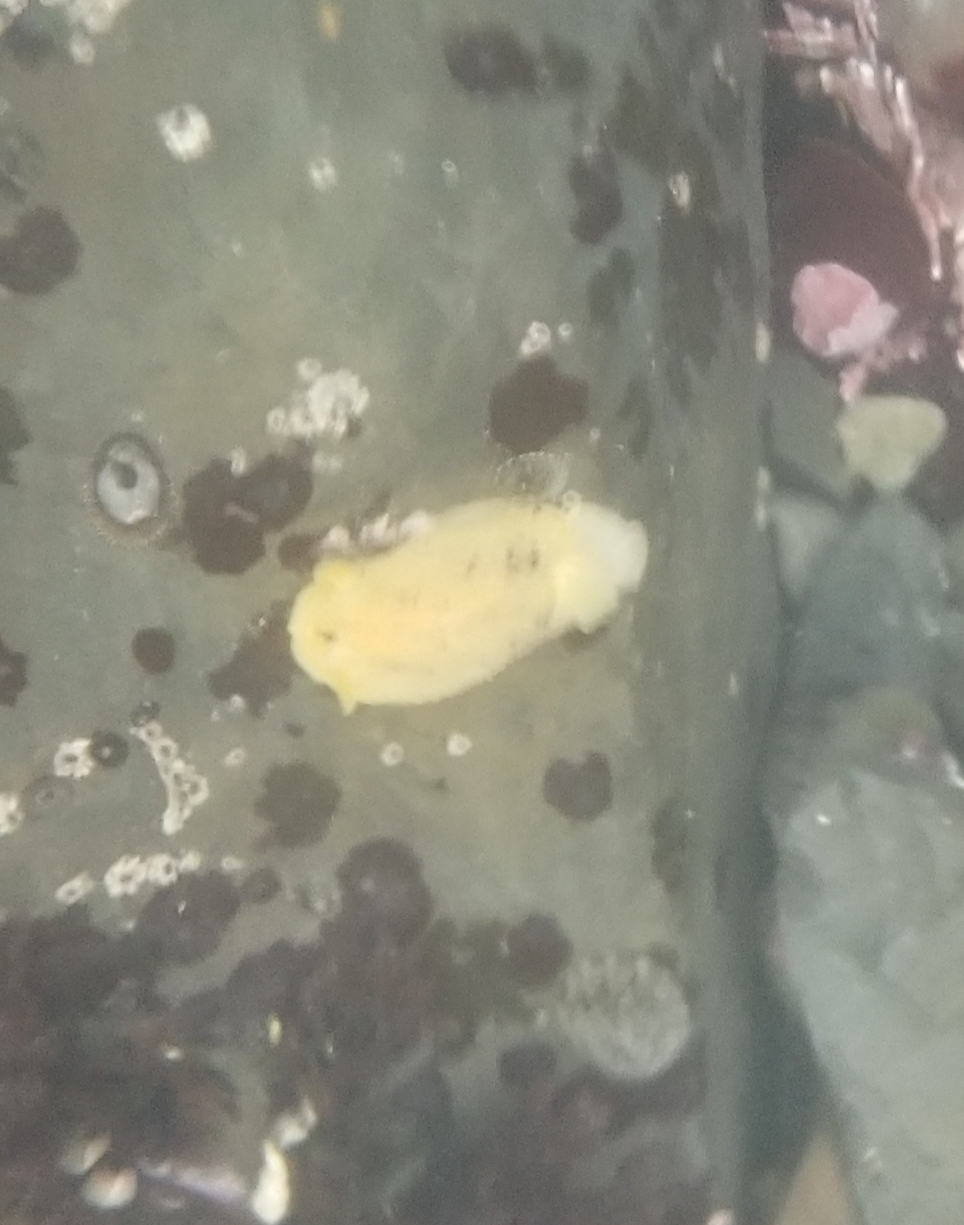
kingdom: Animalia
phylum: Mollusca
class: Gastropoda
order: Nudibranchia
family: Dorididae
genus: Doris
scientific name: Doris montereyensis
